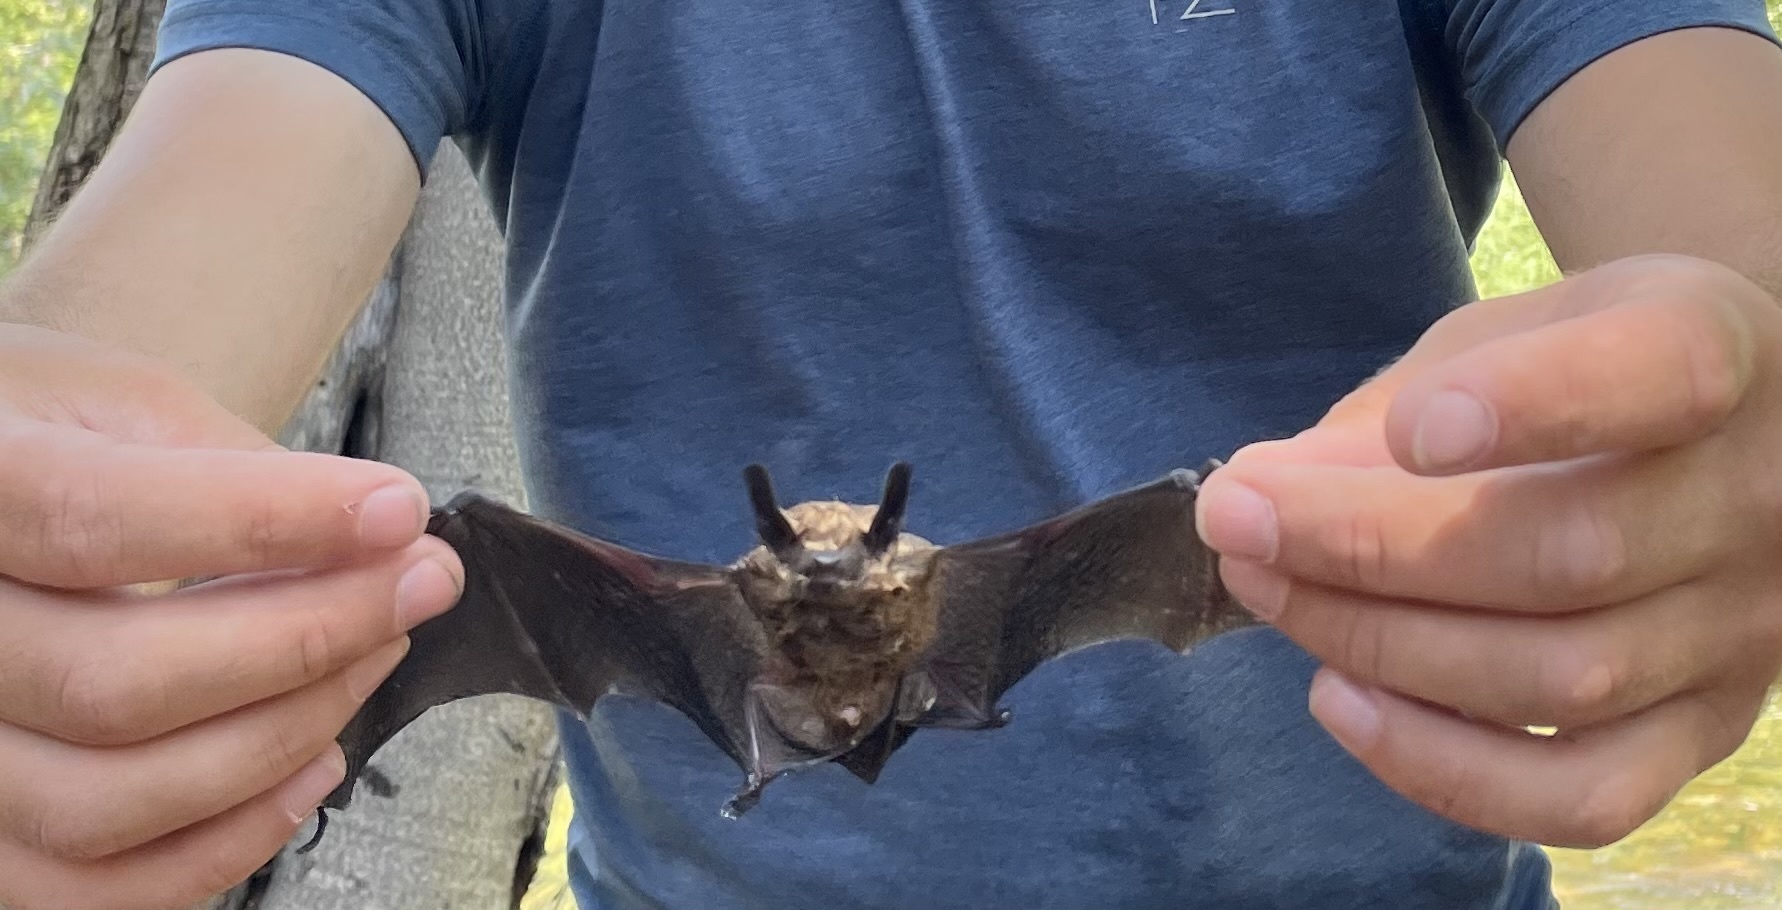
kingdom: Animalia
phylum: Chordata
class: Mammalia
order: Chiroptera
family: Vespertilionidae
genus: Eptesicus
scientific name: Eptesicus fuscus
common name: Big brown bat
